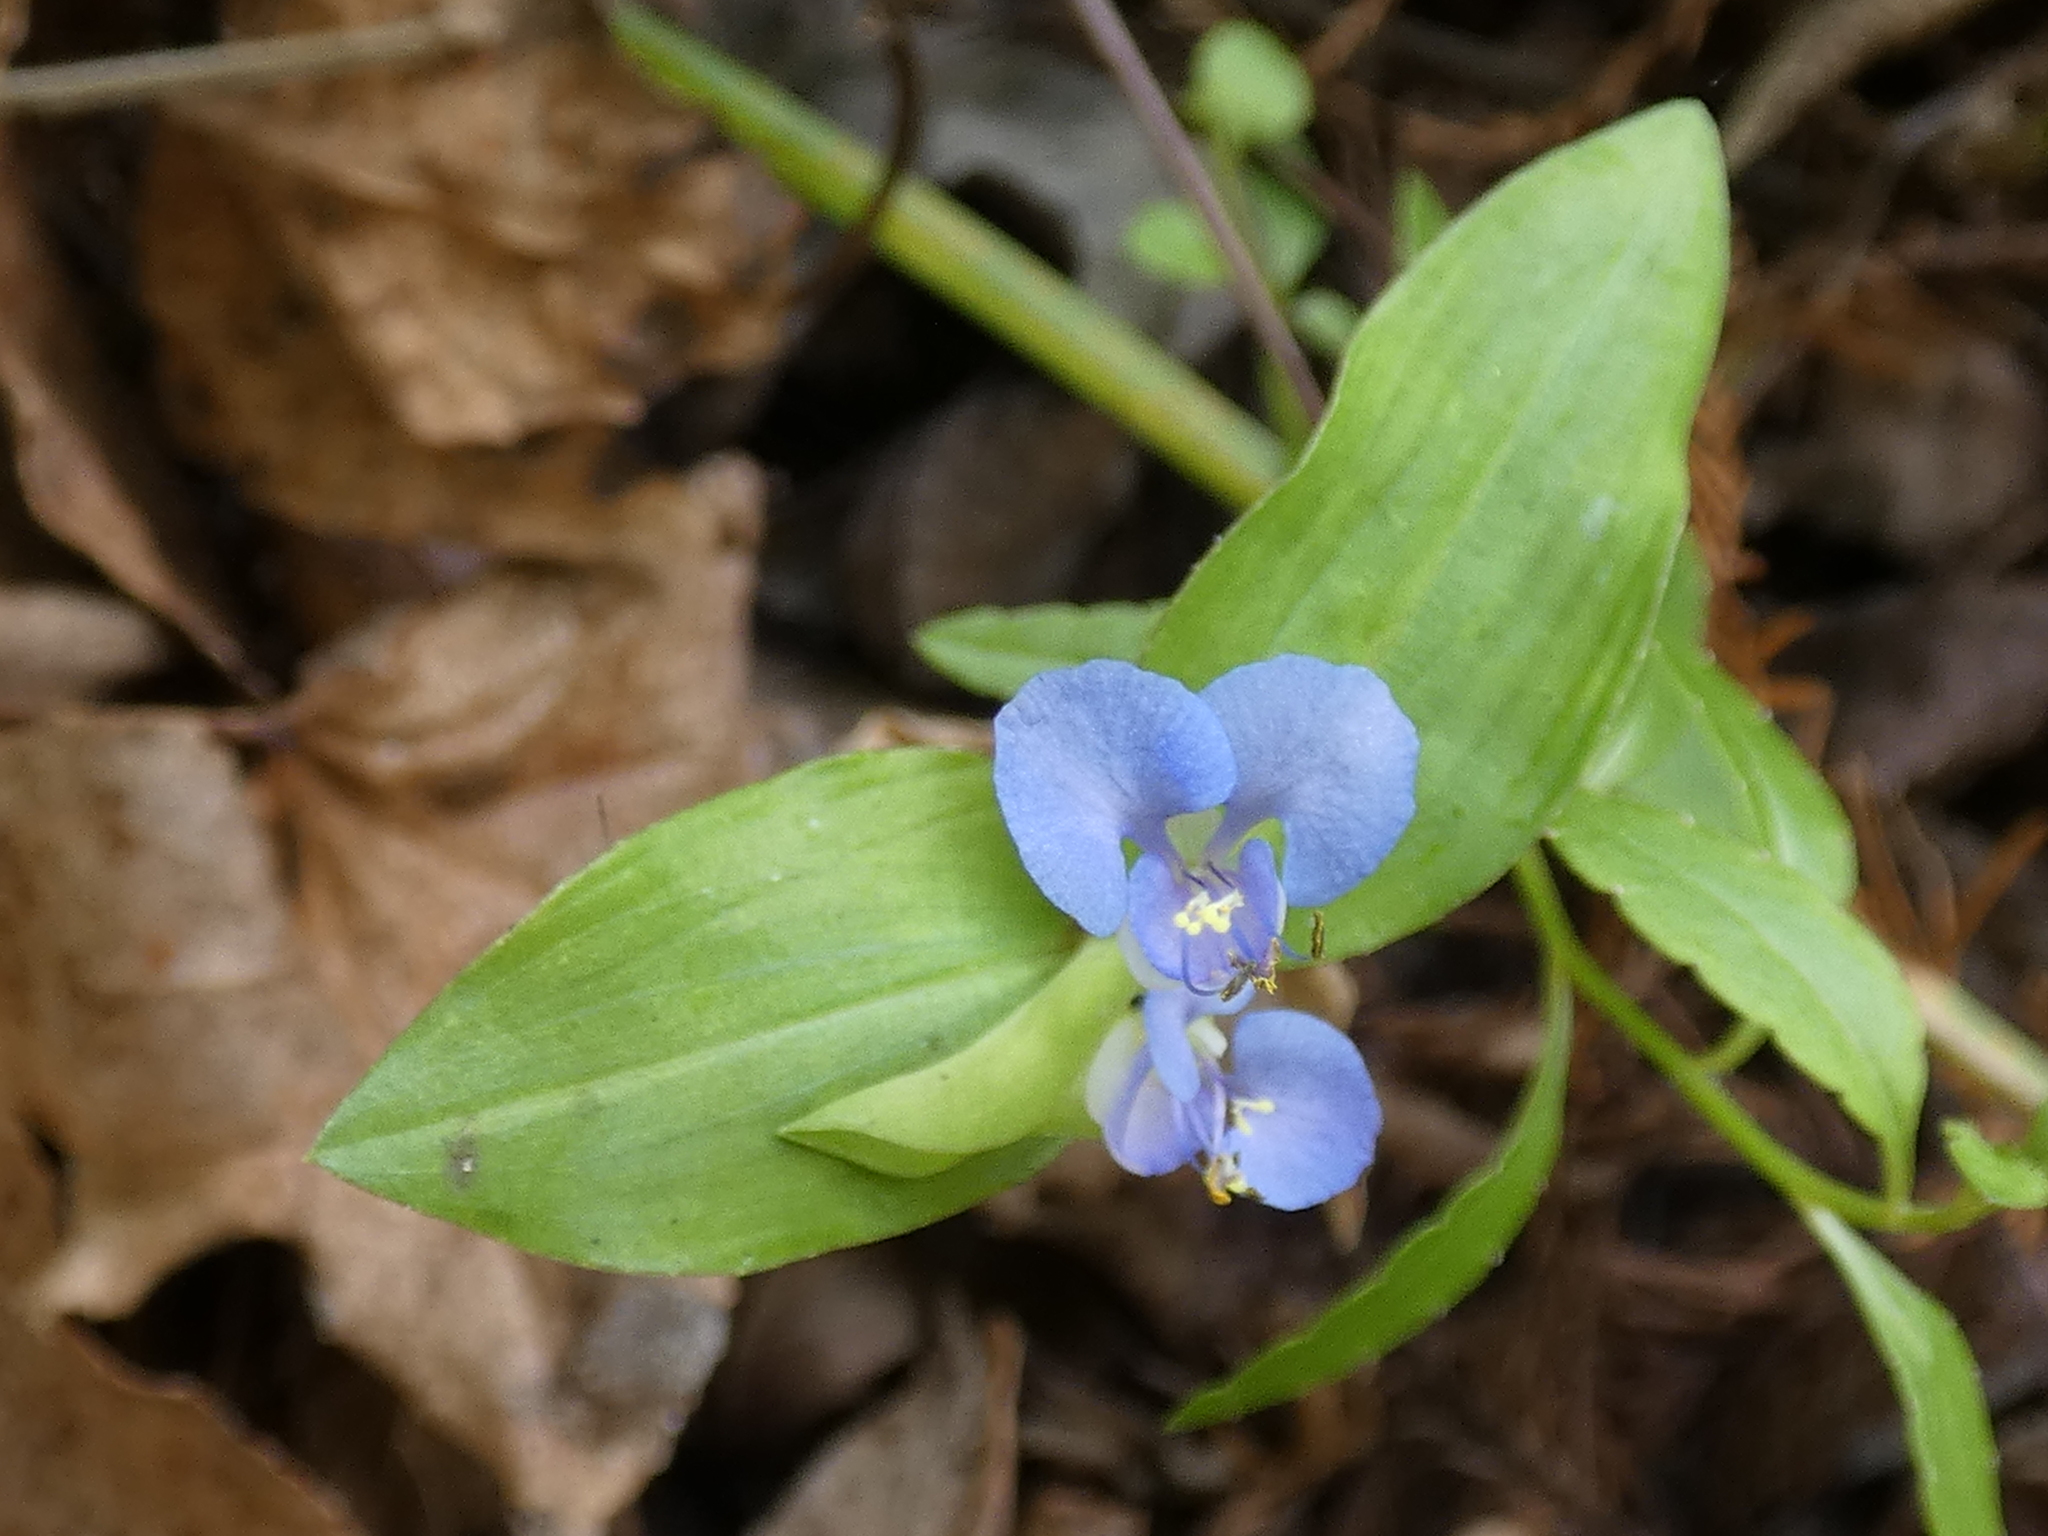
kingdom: Plantae
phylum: Tracheophyta
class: Liliopsida
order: Commelinales
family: Commelinaceae
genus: Commelina
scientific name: Commelina diffusa
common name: Climbing dayflower
